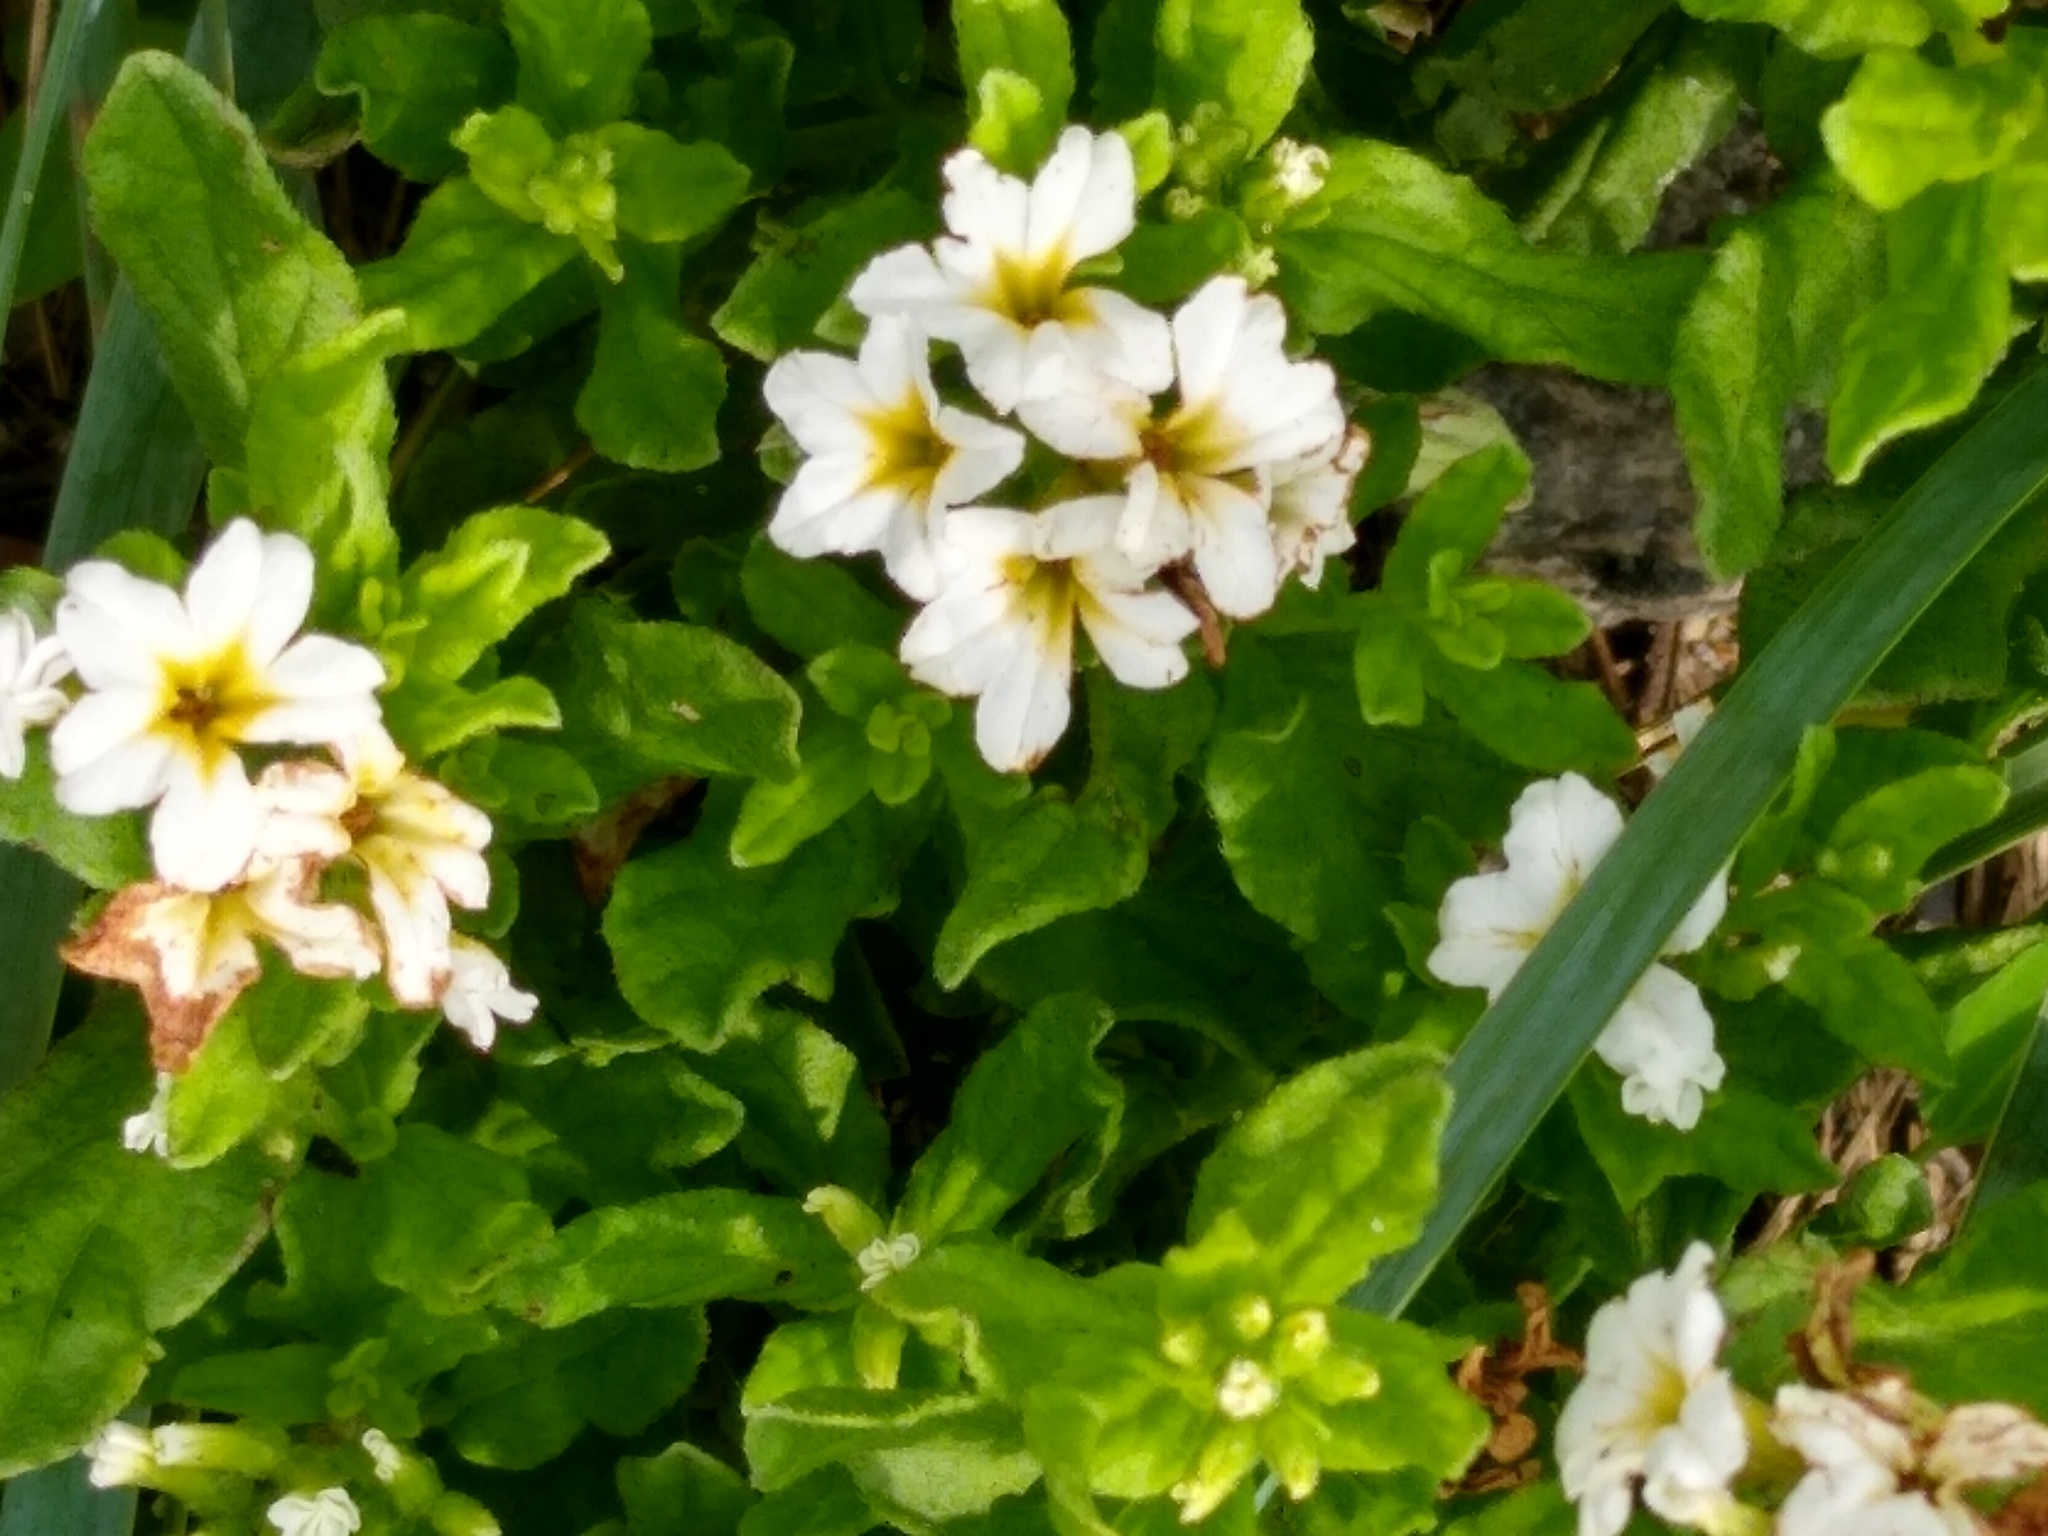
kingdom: Plantae
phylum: Tracheophyta
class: Magnoliopsida
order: Boraginales
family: Heliotropiaceae
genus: Tournefortia
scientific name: Tournefortia sibirica
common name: Siberian sea rosemary
